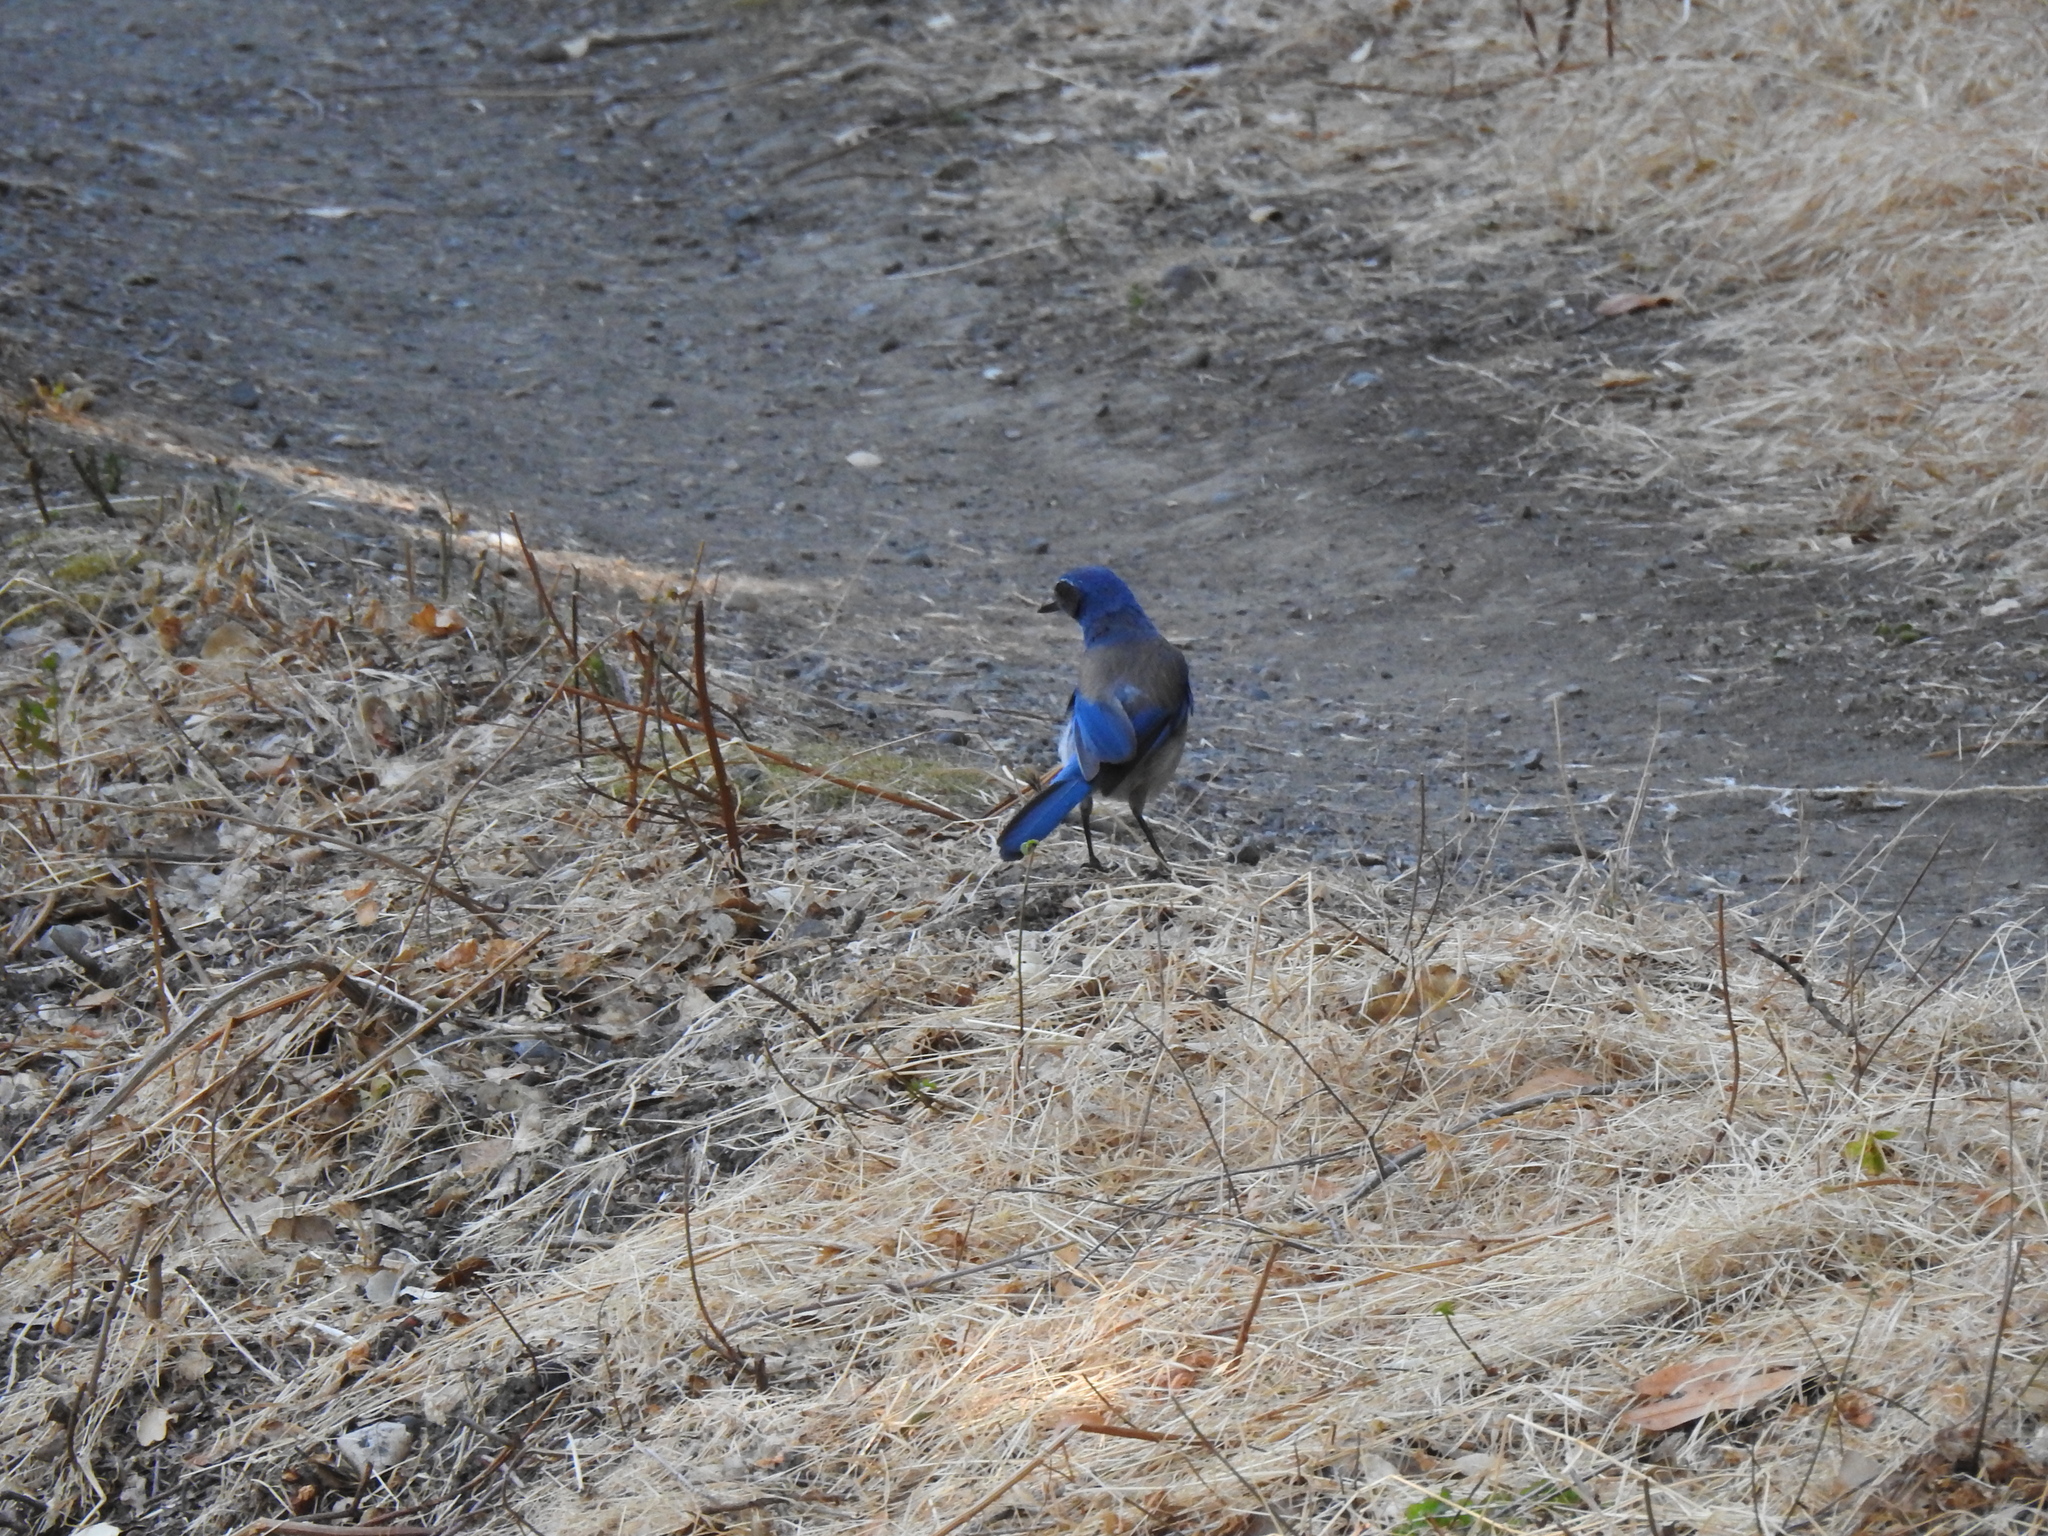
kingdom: Animalia
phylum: Chordata
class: Aves
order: Passeriformes
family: Corvidae
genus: Aphelocoma
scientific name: Aphelocoma californica
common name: California scrub-jay
